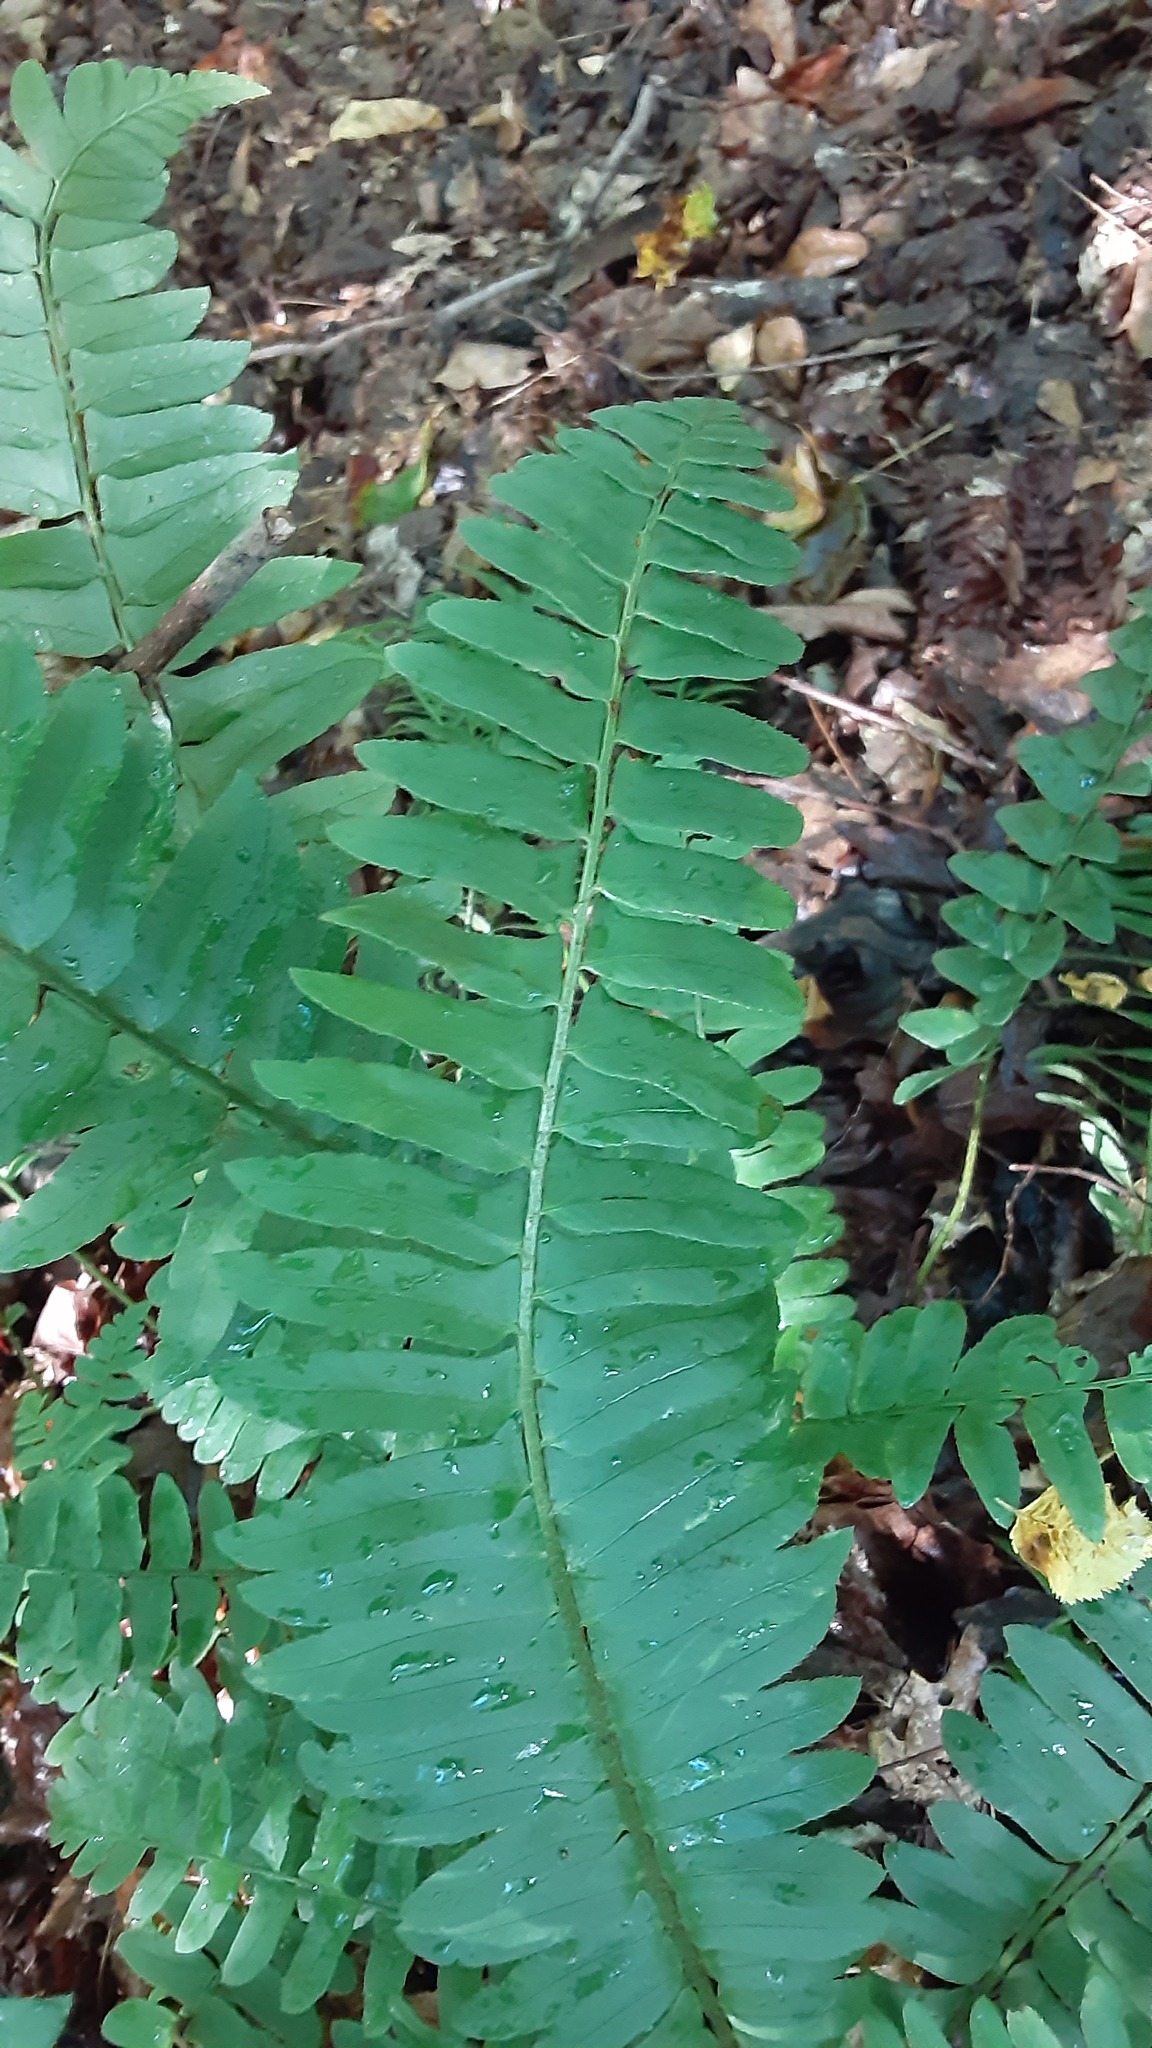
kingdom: Plantae
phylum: Tracheophyta
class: Polypodiopsida
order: Polypodiales
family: Dryopteridaceae
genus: Polystichum
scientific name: Polystichum acrostichoides
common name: Christmas fern
